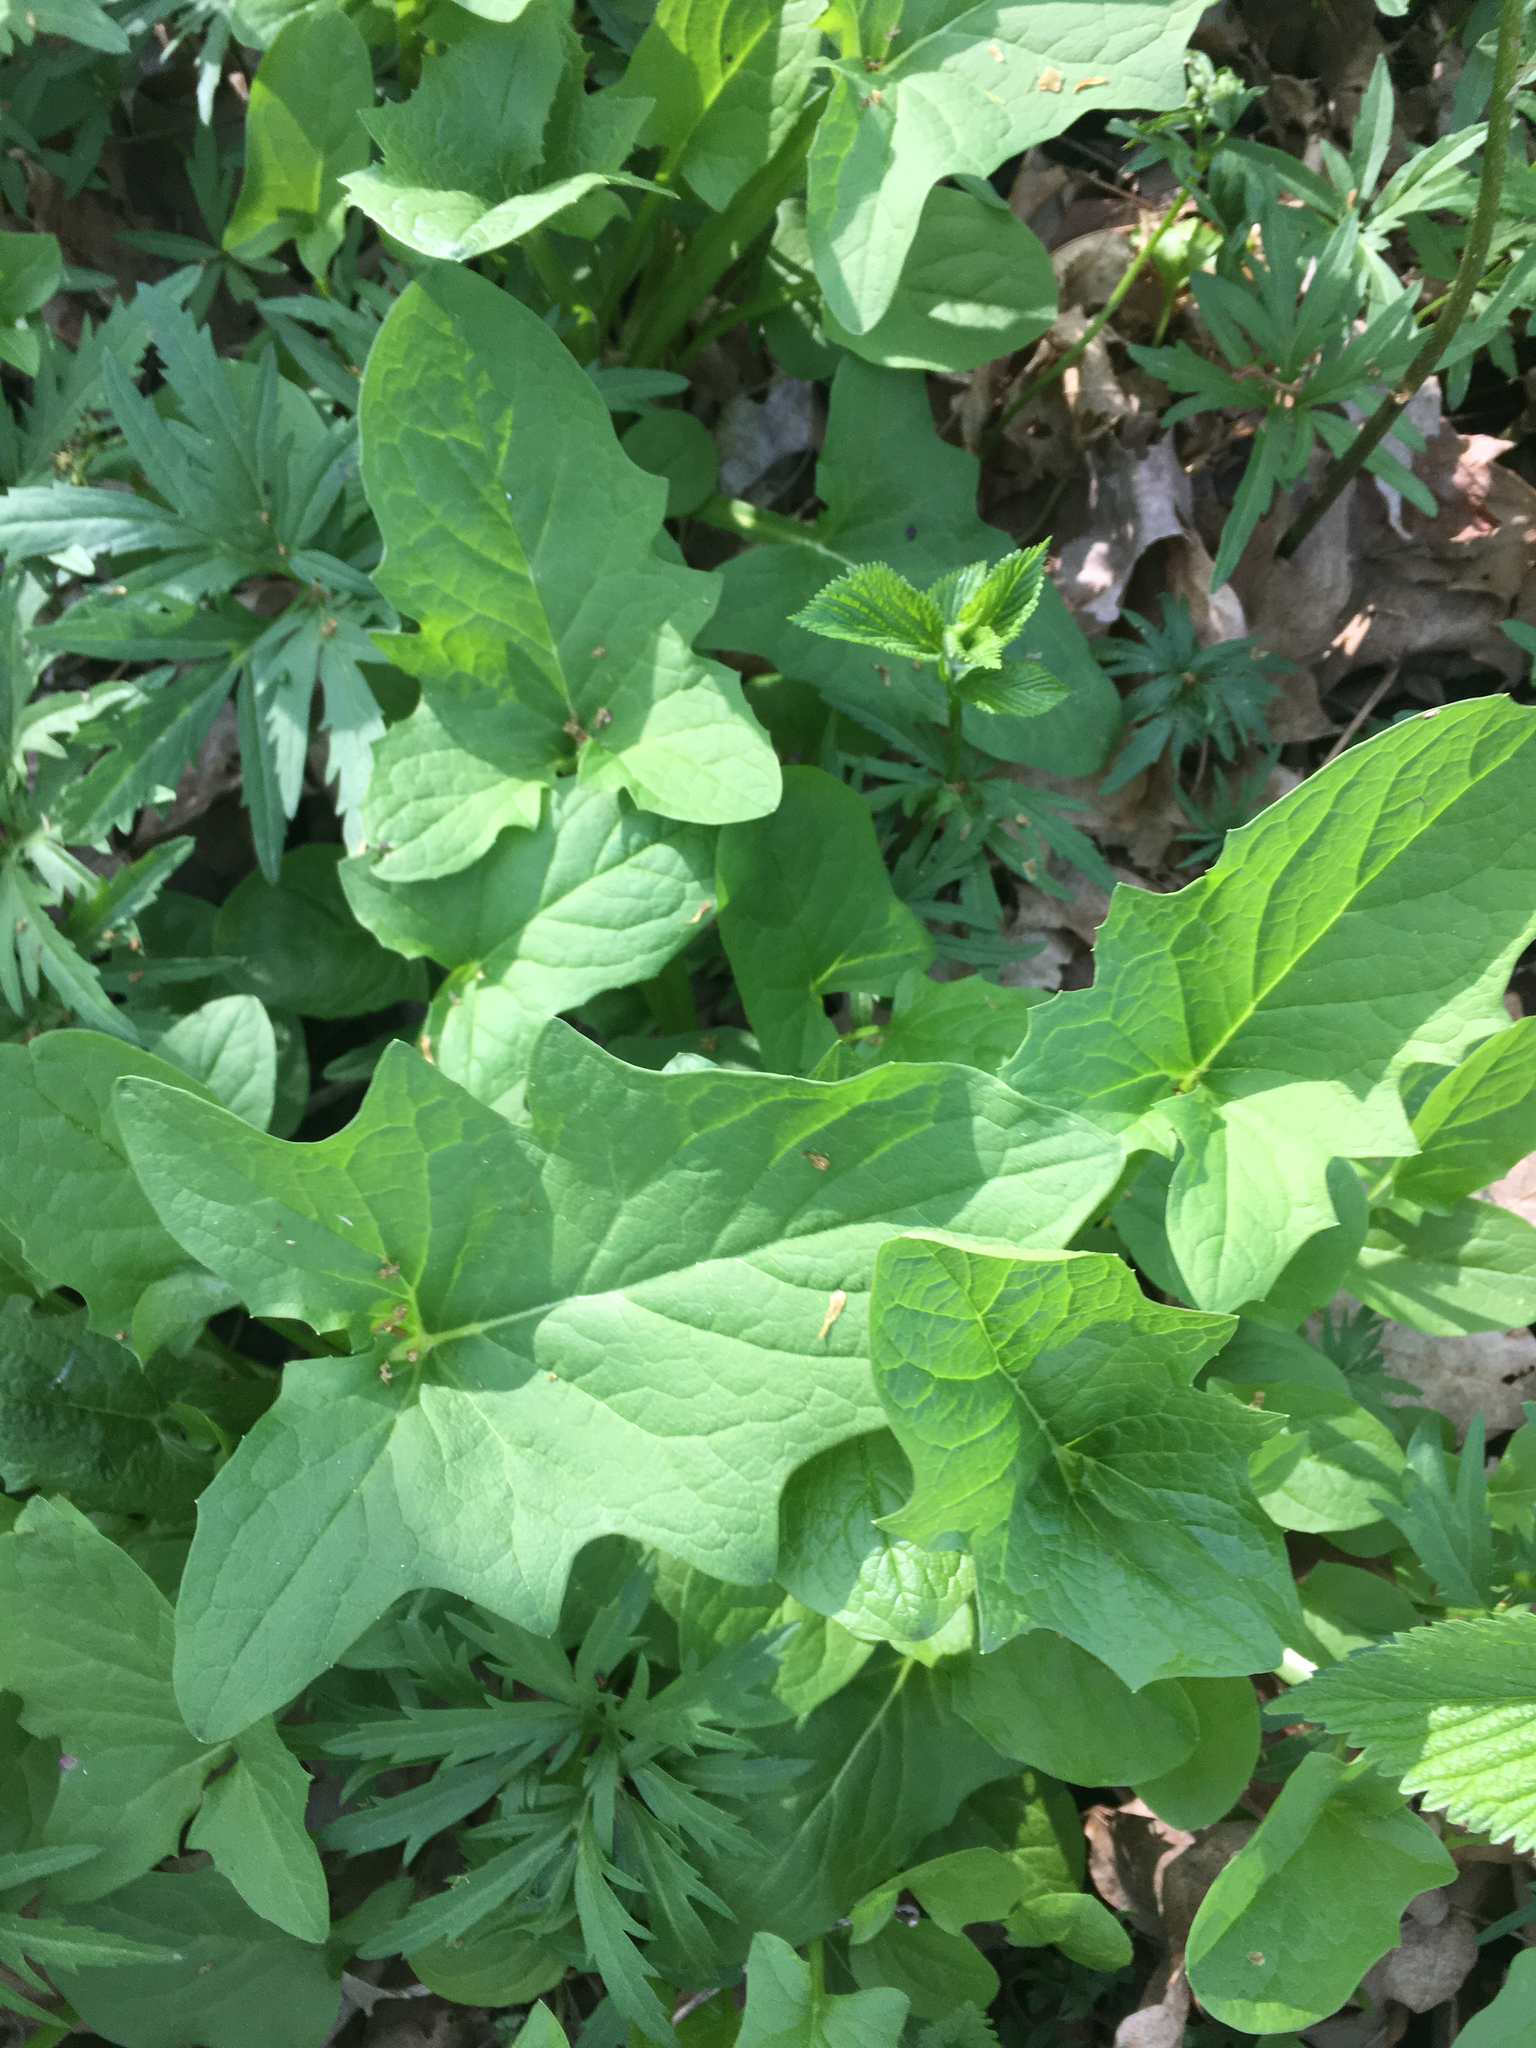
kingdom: Plantae
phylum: Tracheophyta
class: Magnoliopsida
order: Asterales
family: Asteraceae
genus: Nabalus
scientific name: Nabalus crepidineus
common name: Nodding rattlesnakeroot
